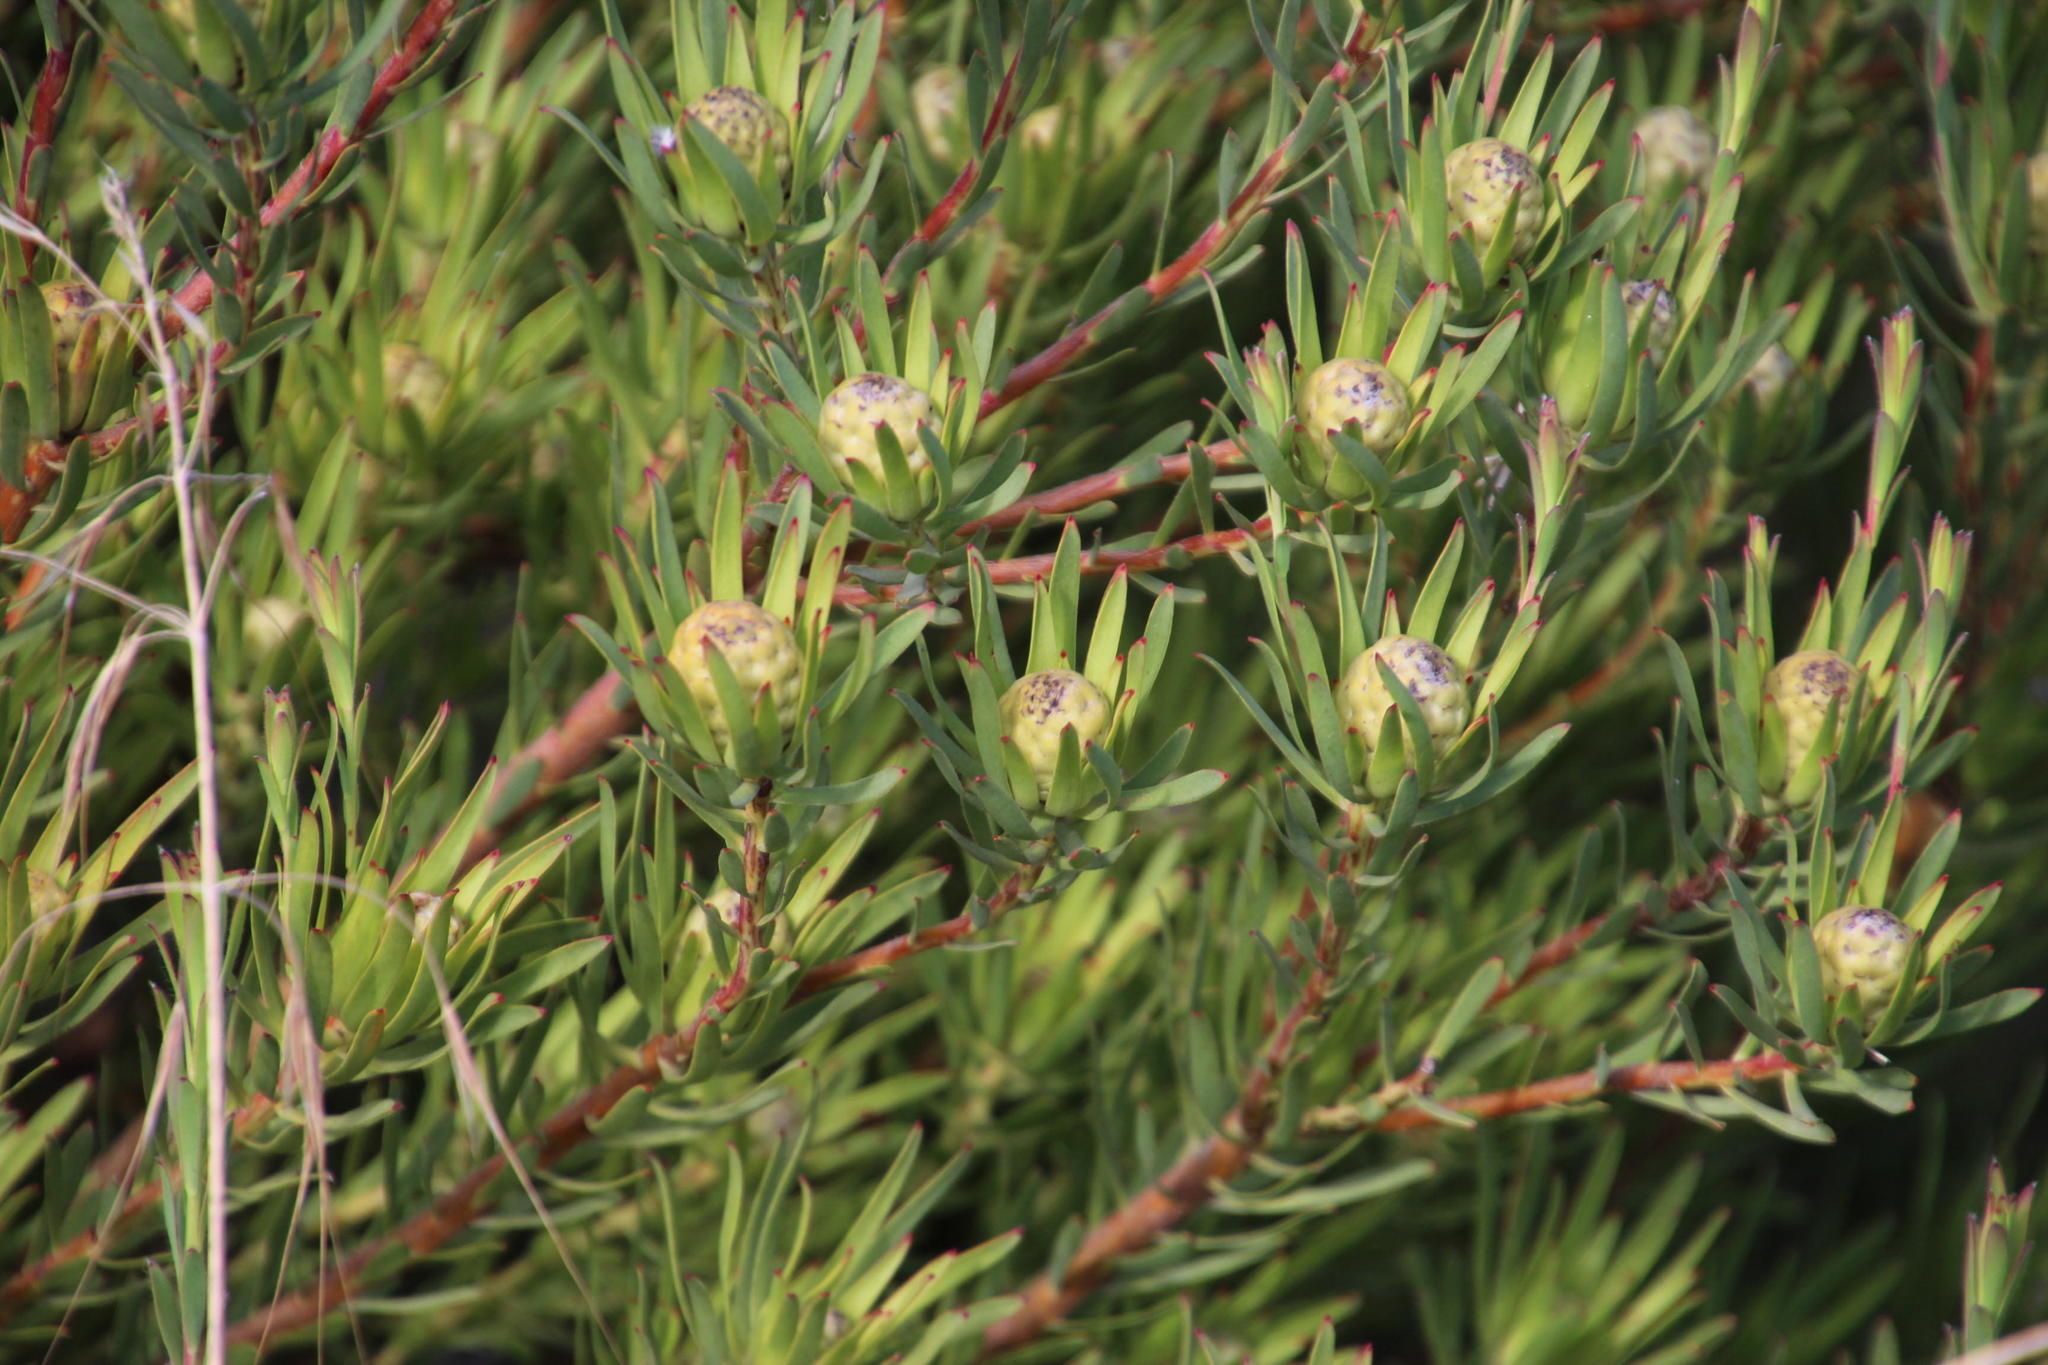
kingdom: Plantae
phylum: Tracheophyta
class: Magnoliopsida
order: Proteales
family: Proteaceae
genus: Leucadendron
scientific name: Leucadendron lanigerum
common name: Shale conebush
